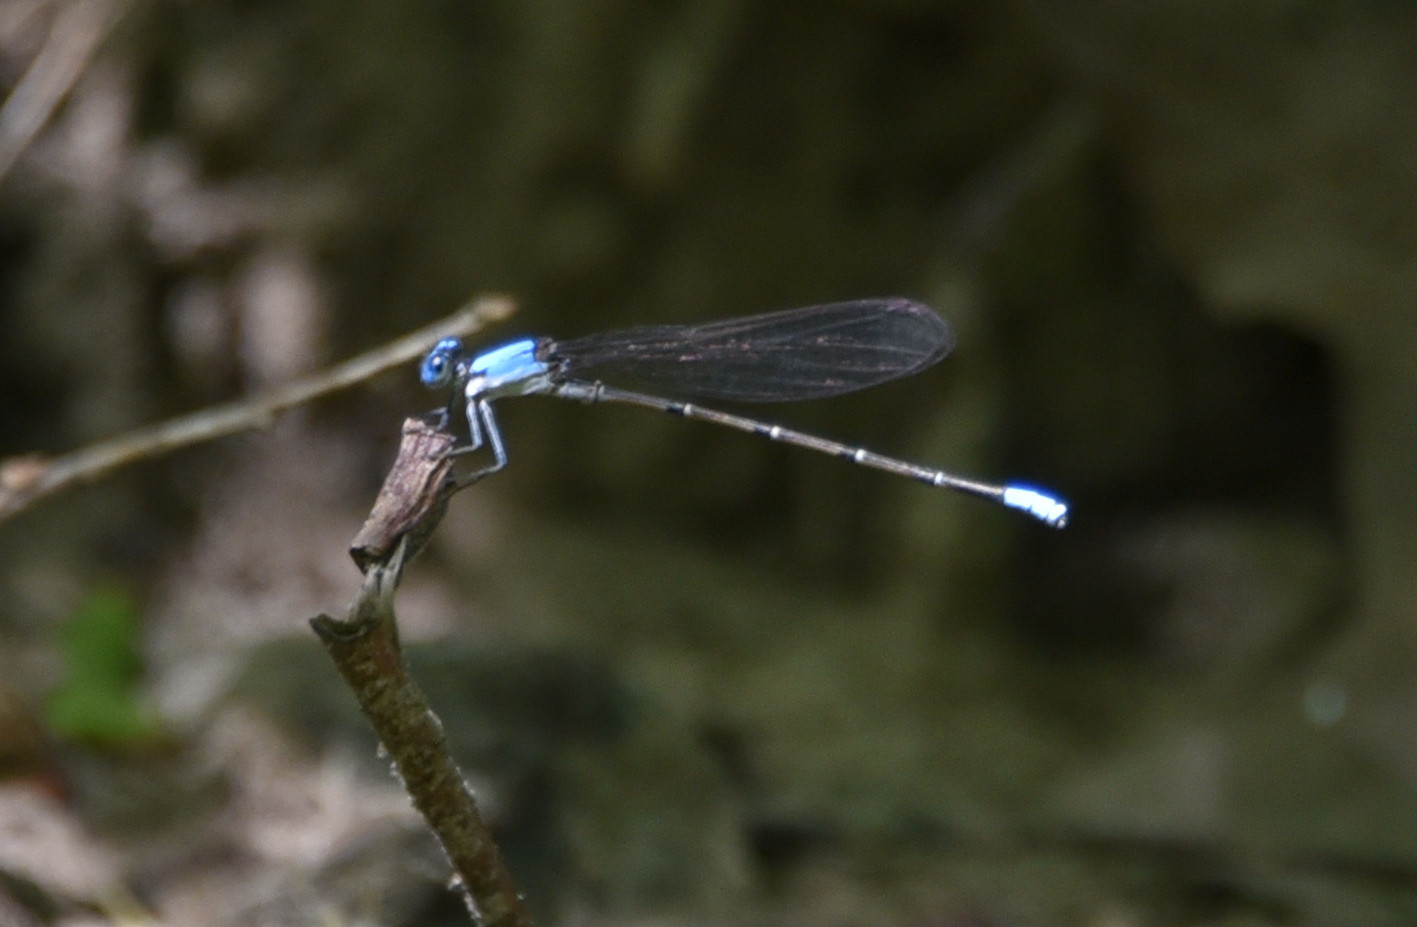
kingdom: Animalia
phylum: Arthropoda
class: Insecta
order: Odonata
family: Coenagrionidae
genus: Argia
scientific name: Argia apicalis
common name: Blue-fronted dancer
